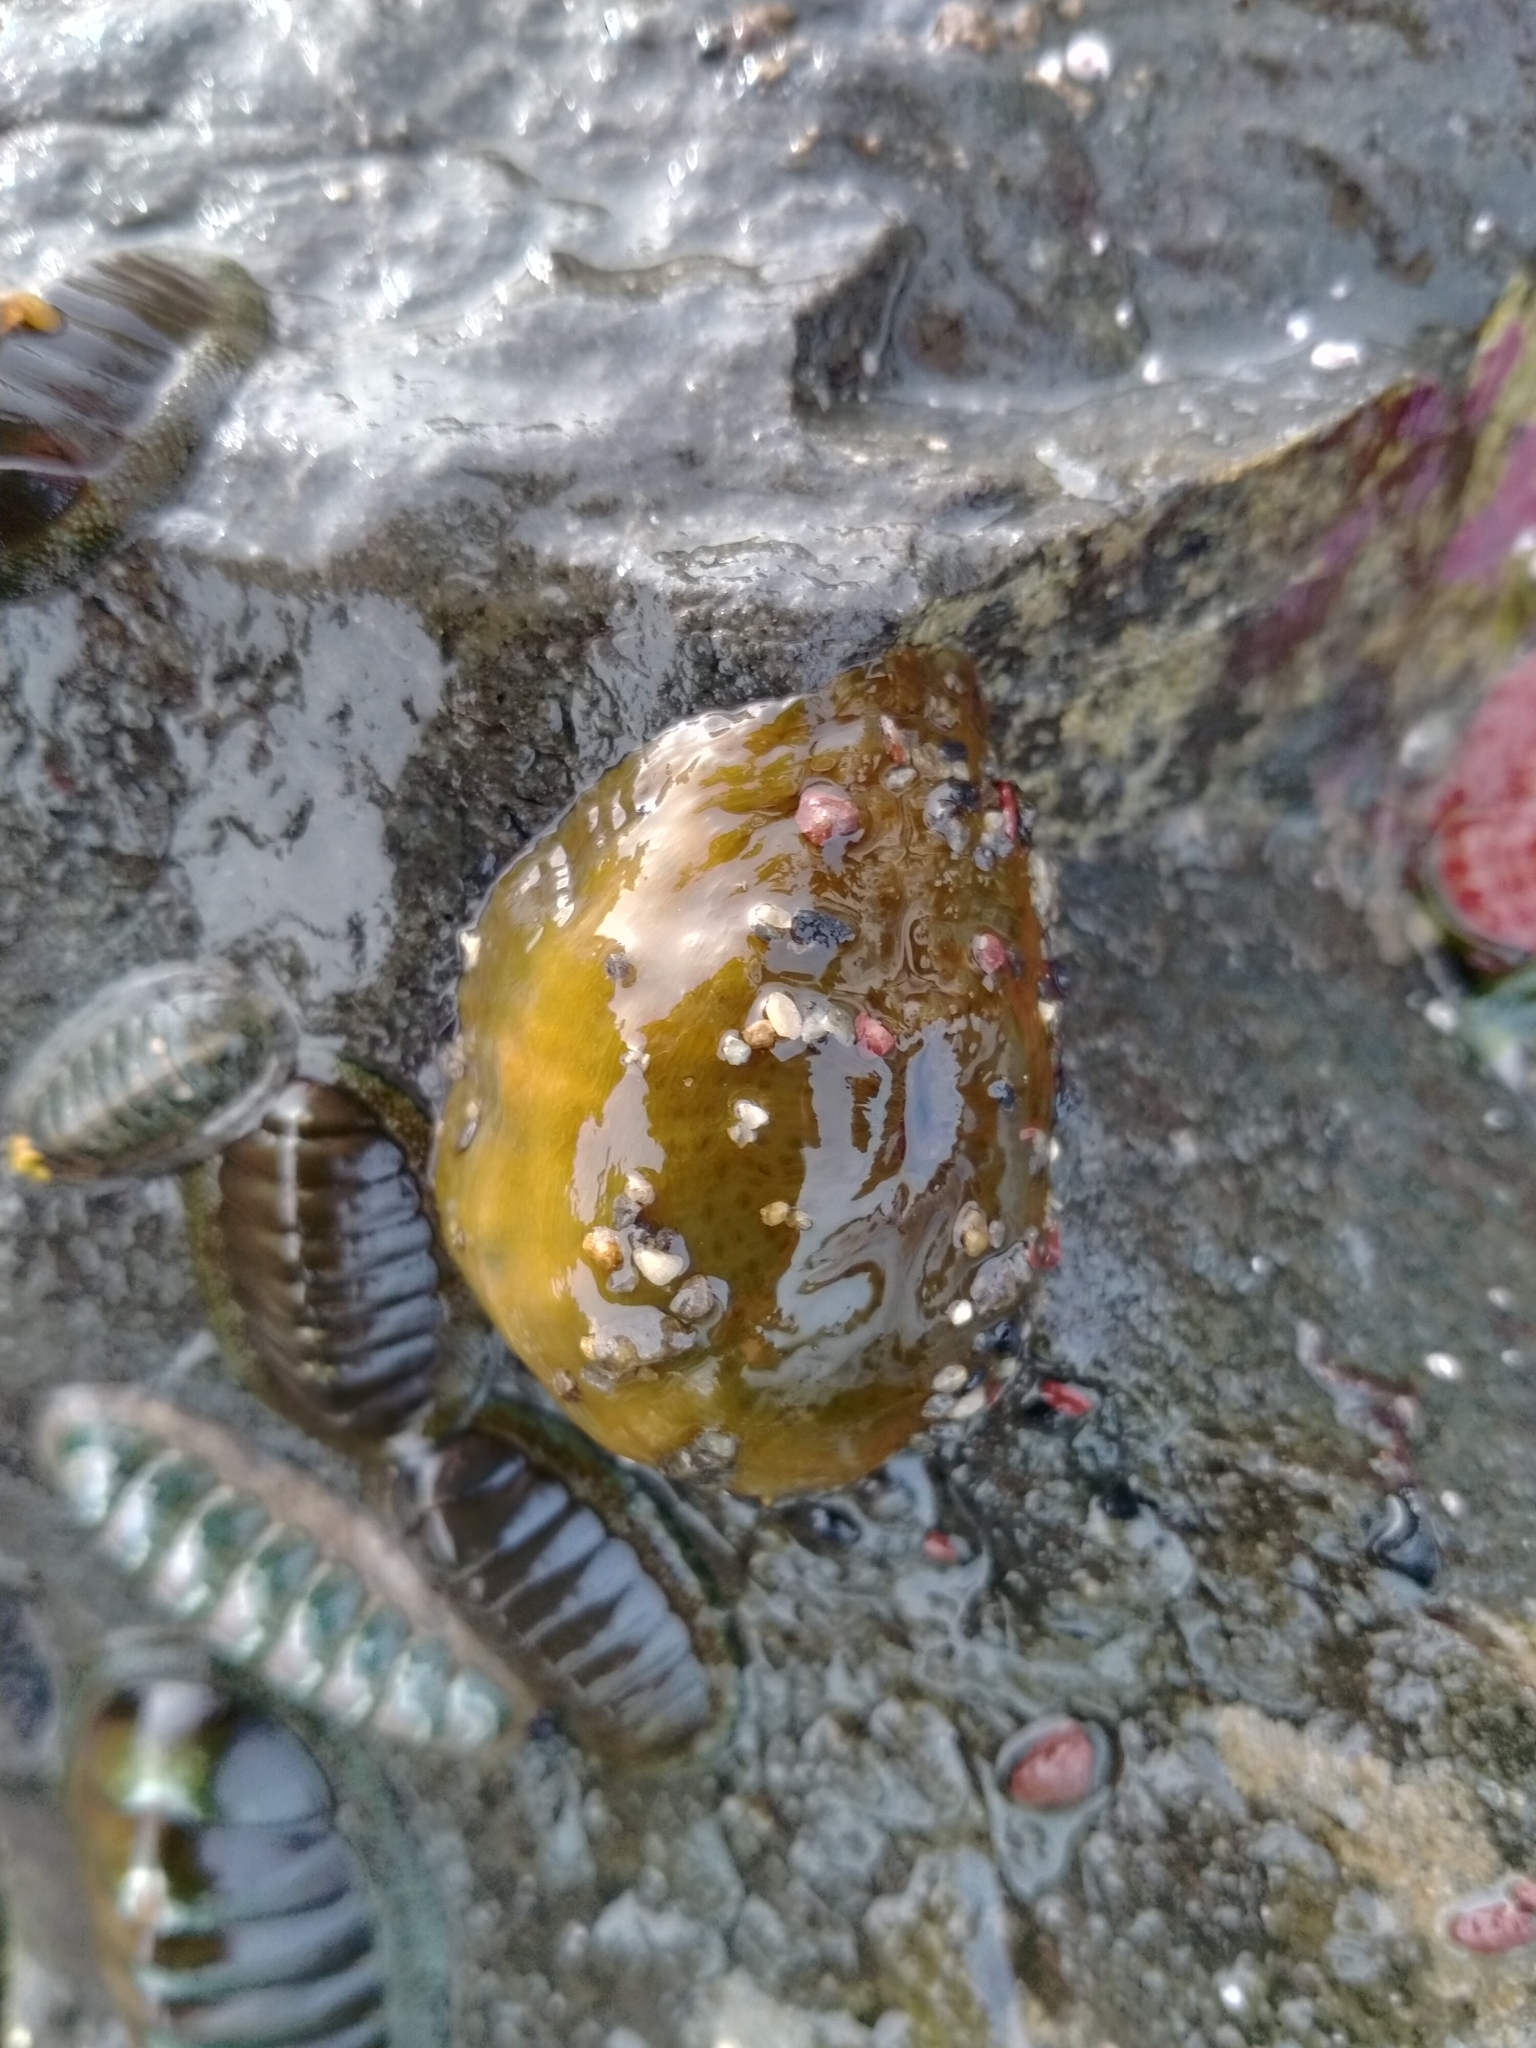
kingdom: Animalia
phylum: Mollusca
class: Polyplacophora
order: Chitonida
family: Acanthochitonidae
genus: Cryptoconchus
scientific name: Cryptoconchus porosus
